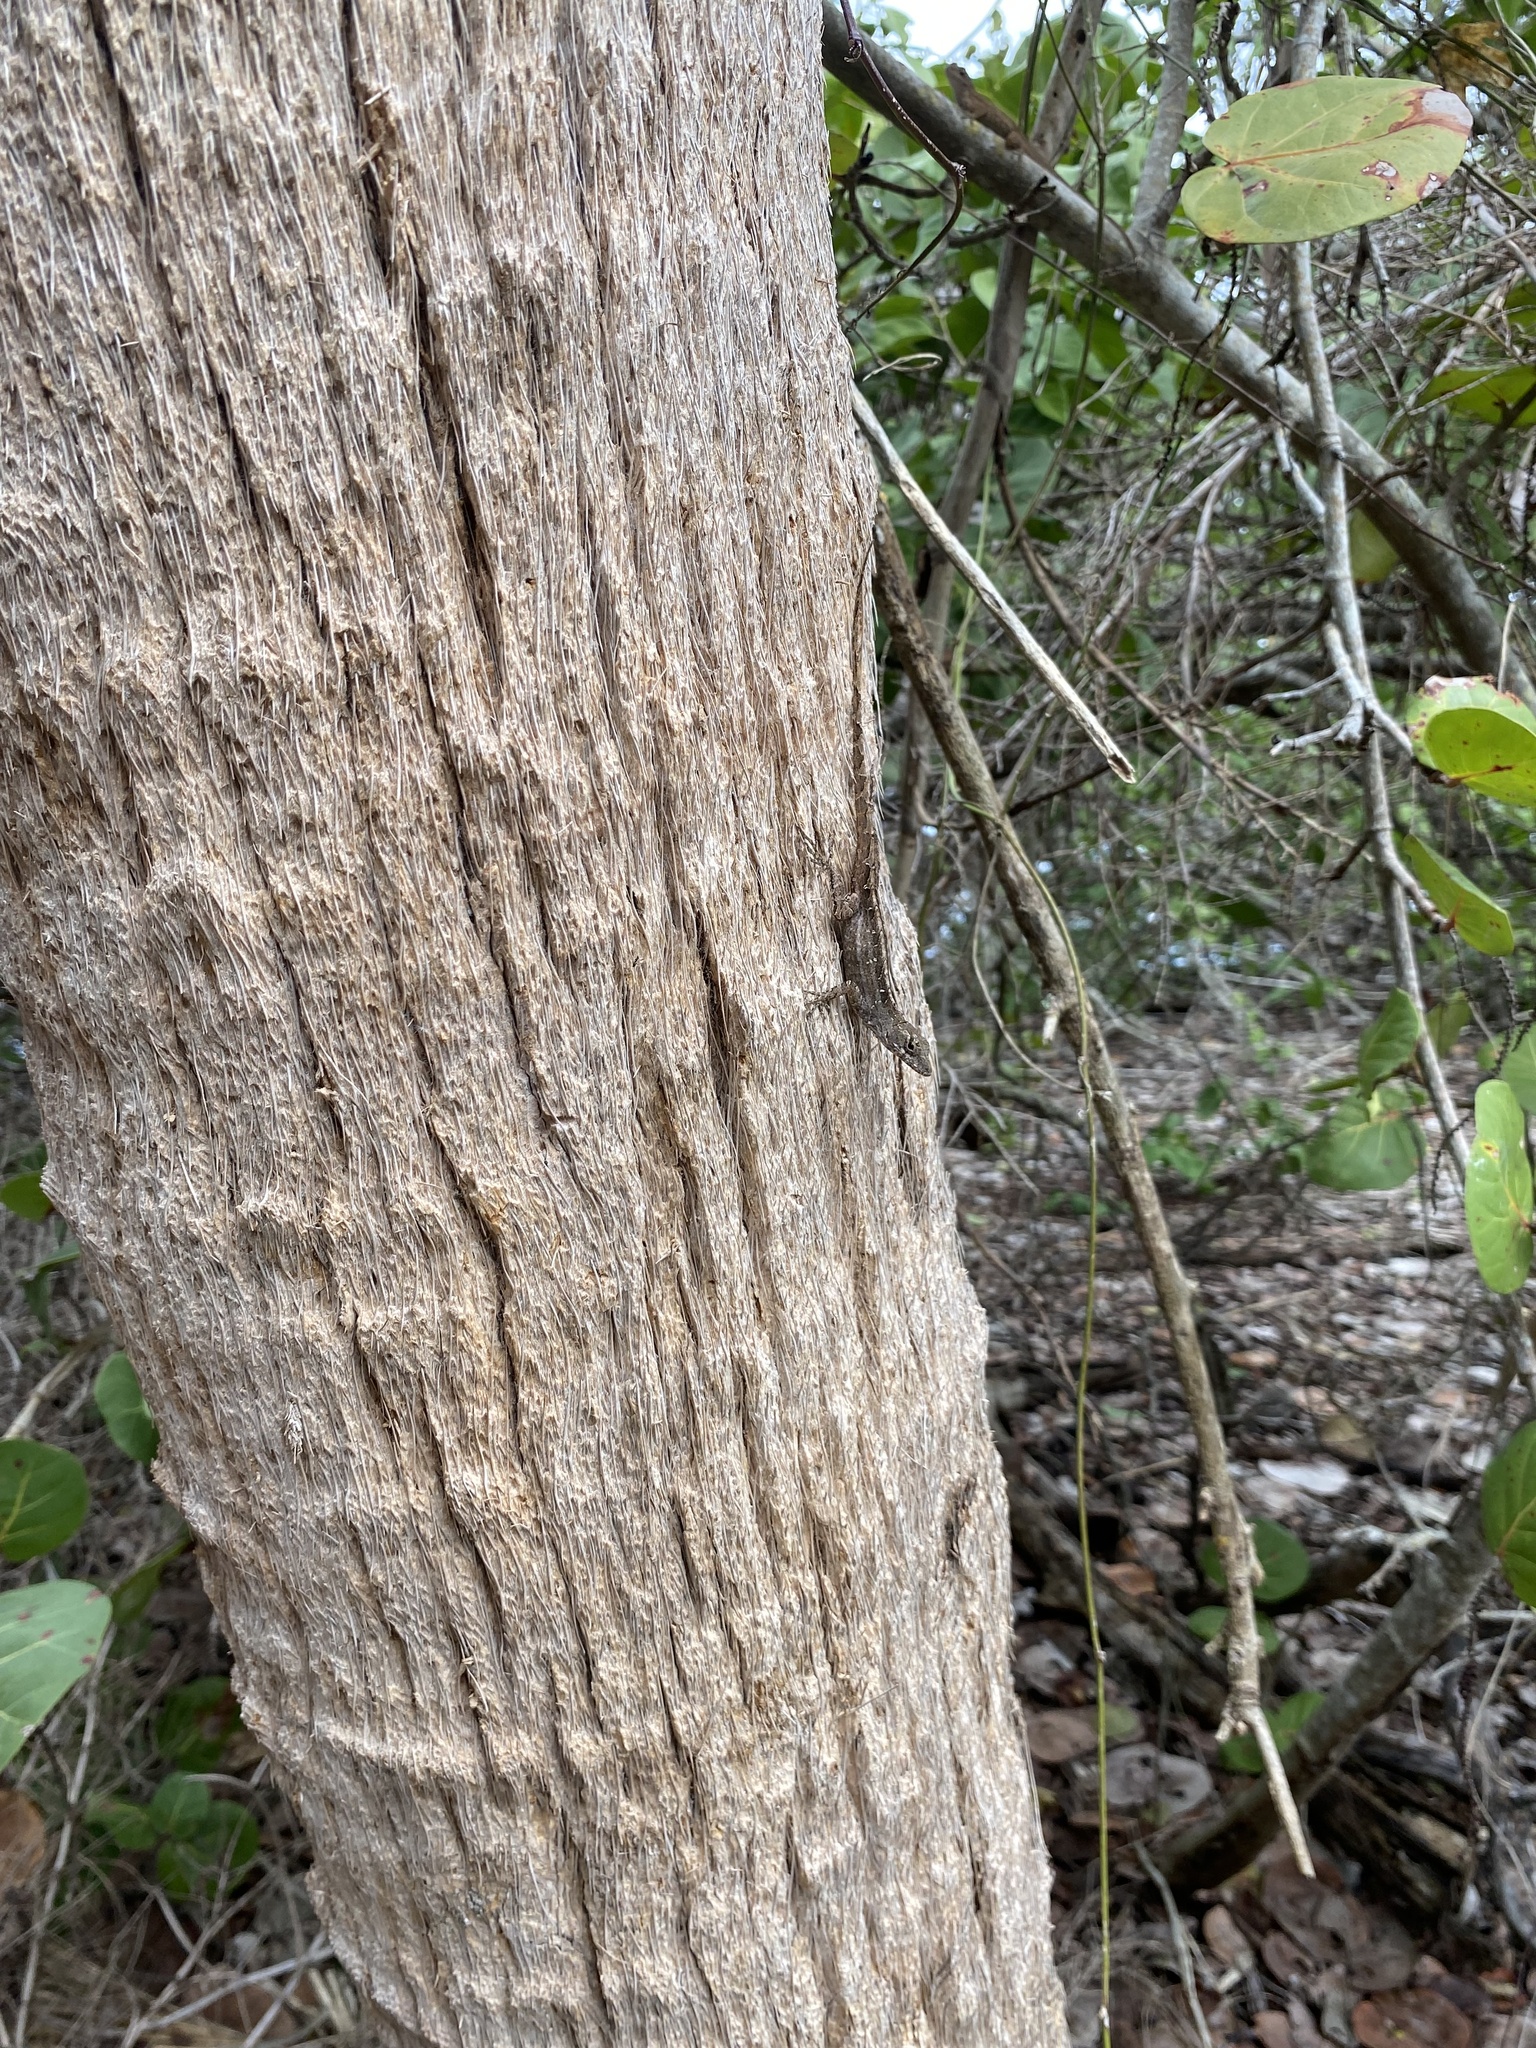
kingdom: Animalia
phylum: Chordata
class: Squamata
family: Dactyloidae
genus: Anolis
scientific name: Anolis sagrei
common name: Brown anole
